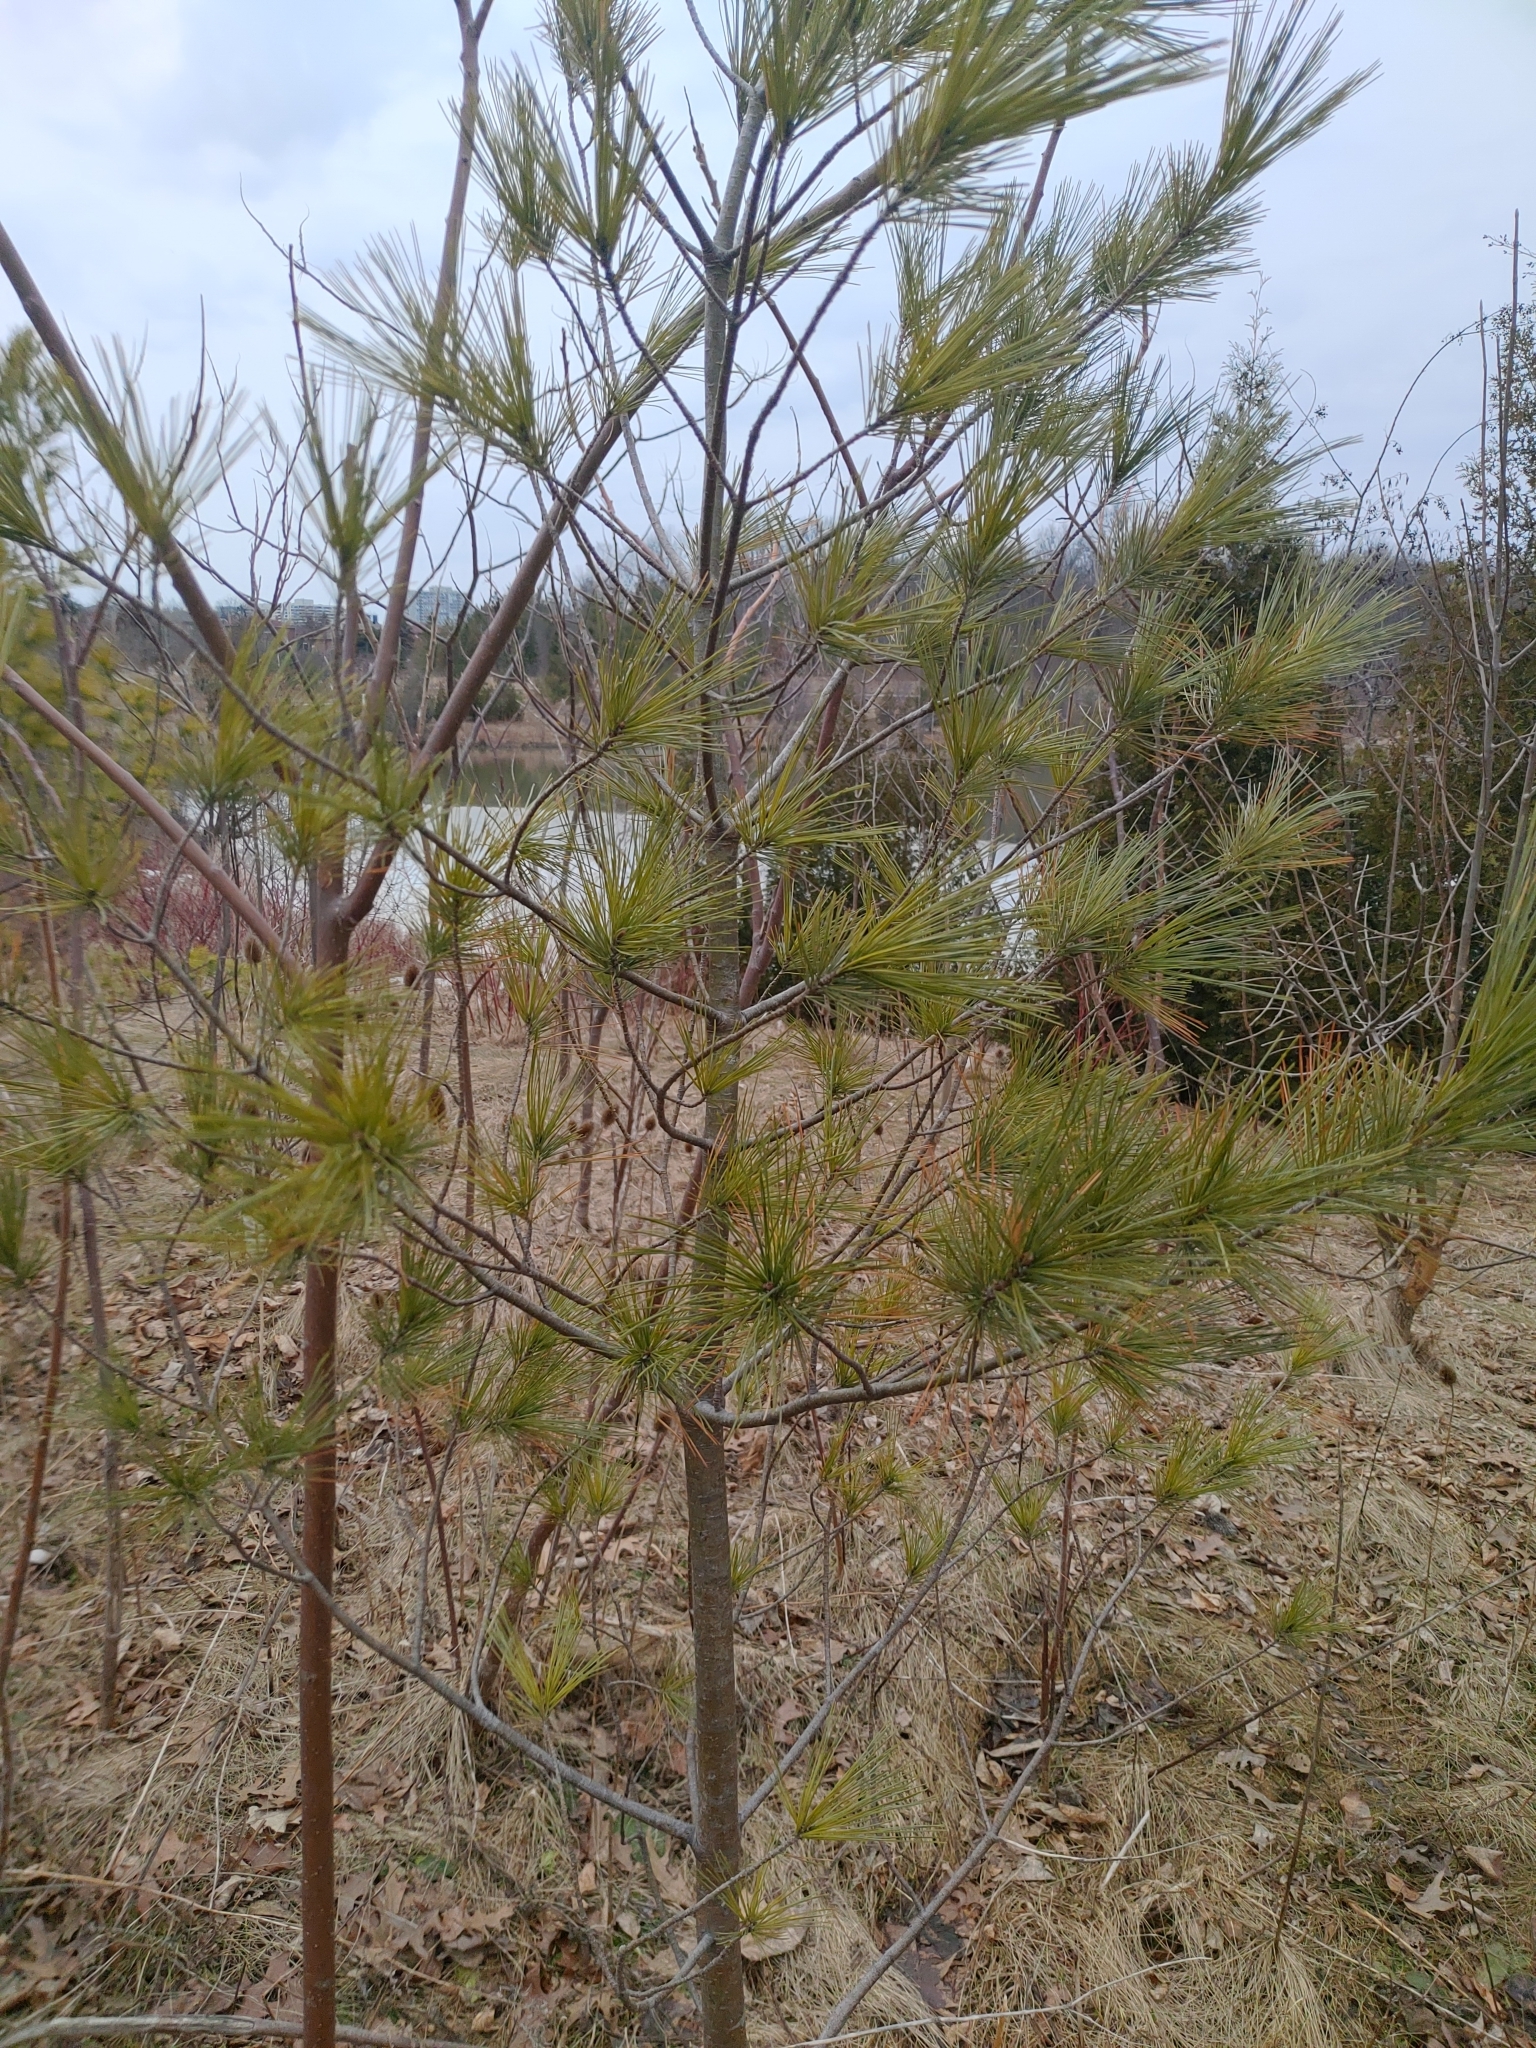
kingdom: Plantae
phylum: Tracheophyta
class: Pinopsida
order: Pinales
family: Pinaceae
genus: Pinus
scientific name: Pinus strobus
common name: Weymouth pine
